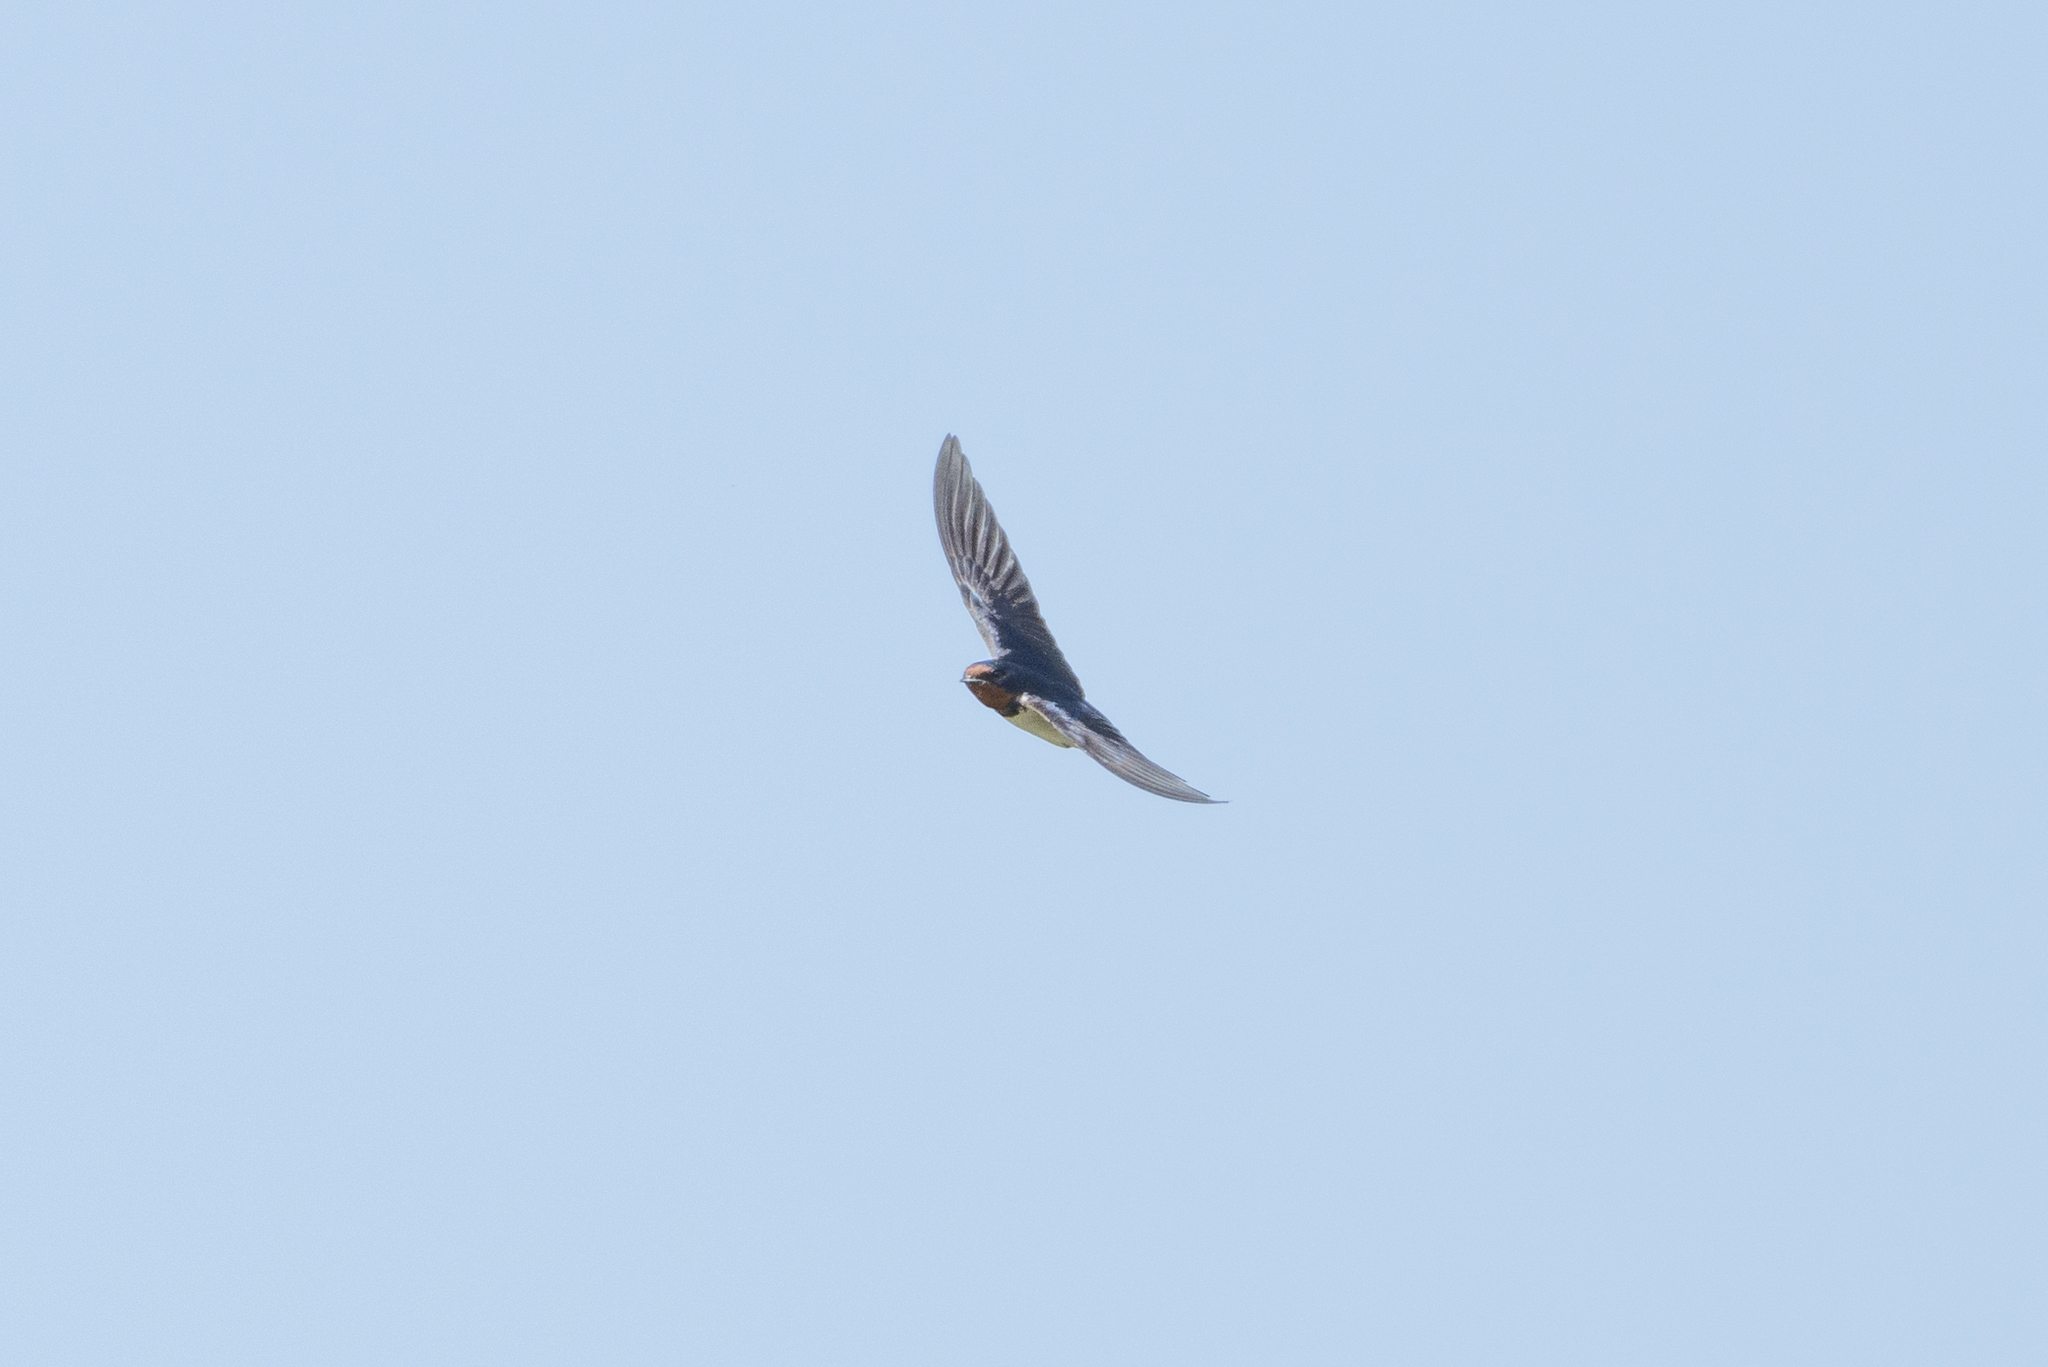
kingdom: Animalia
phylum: Chordata
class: Aves
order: Passeriformes
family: Hirundinidae
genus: Hirundo
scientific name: Hirundo rustica
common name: Barn swallow
